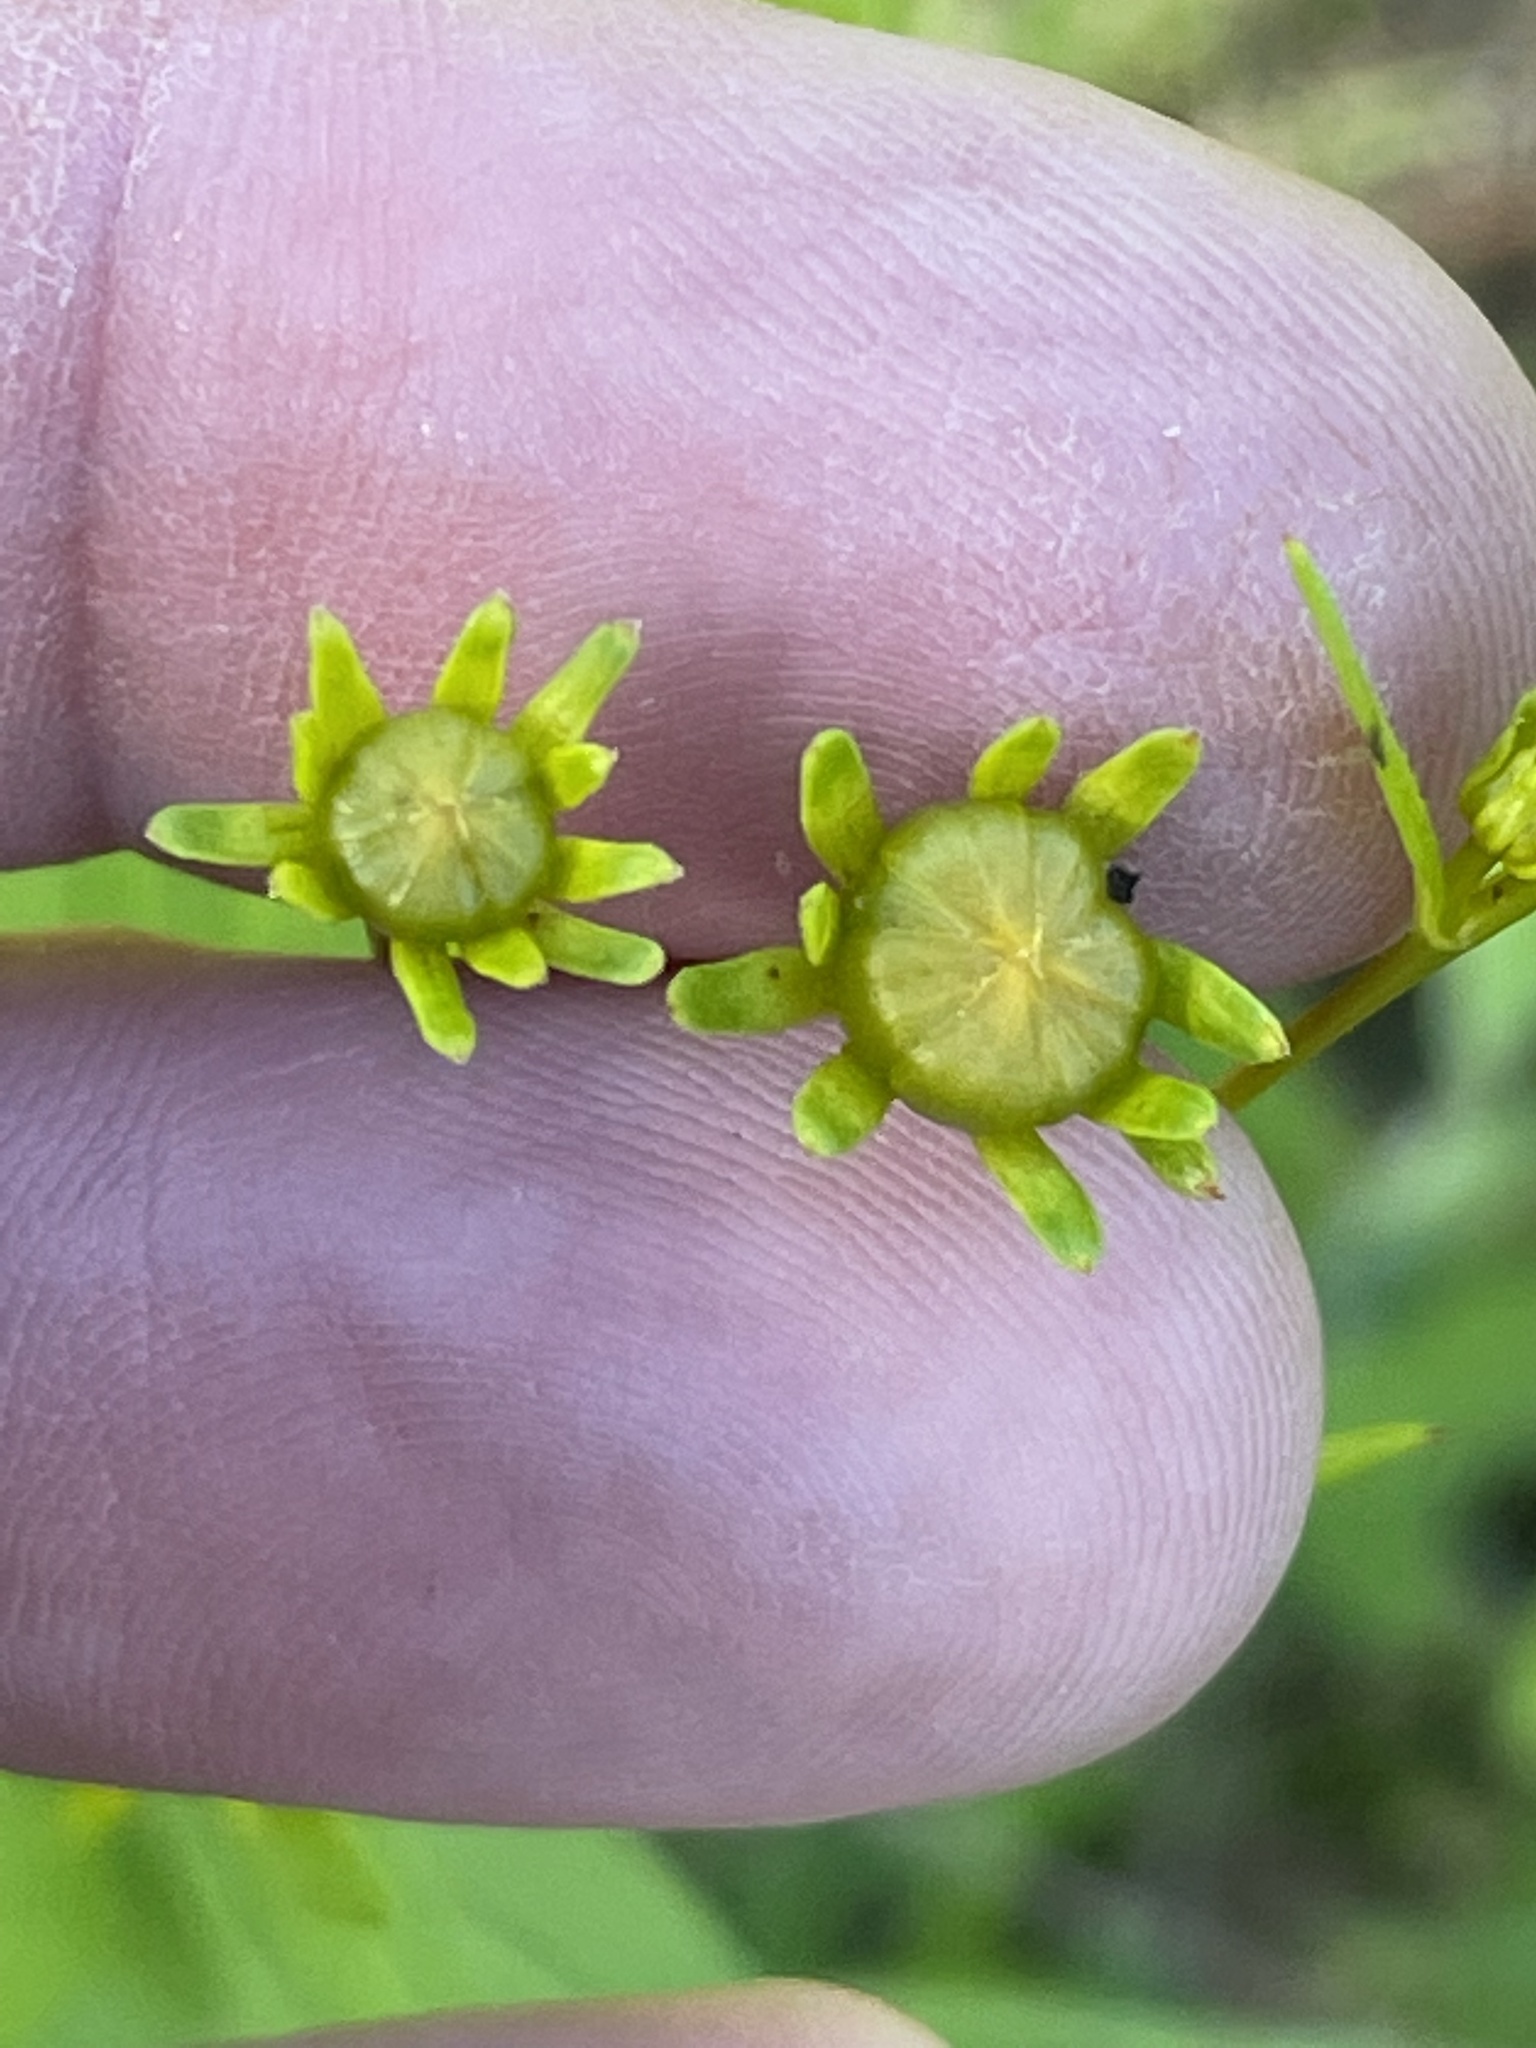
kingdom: Plantae
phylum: Tracheophyta
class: Magnoliopsida
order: Asterales
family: Asteraceae
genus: Coreopsis
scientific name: Coreopsis major
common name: Forest tickseed
